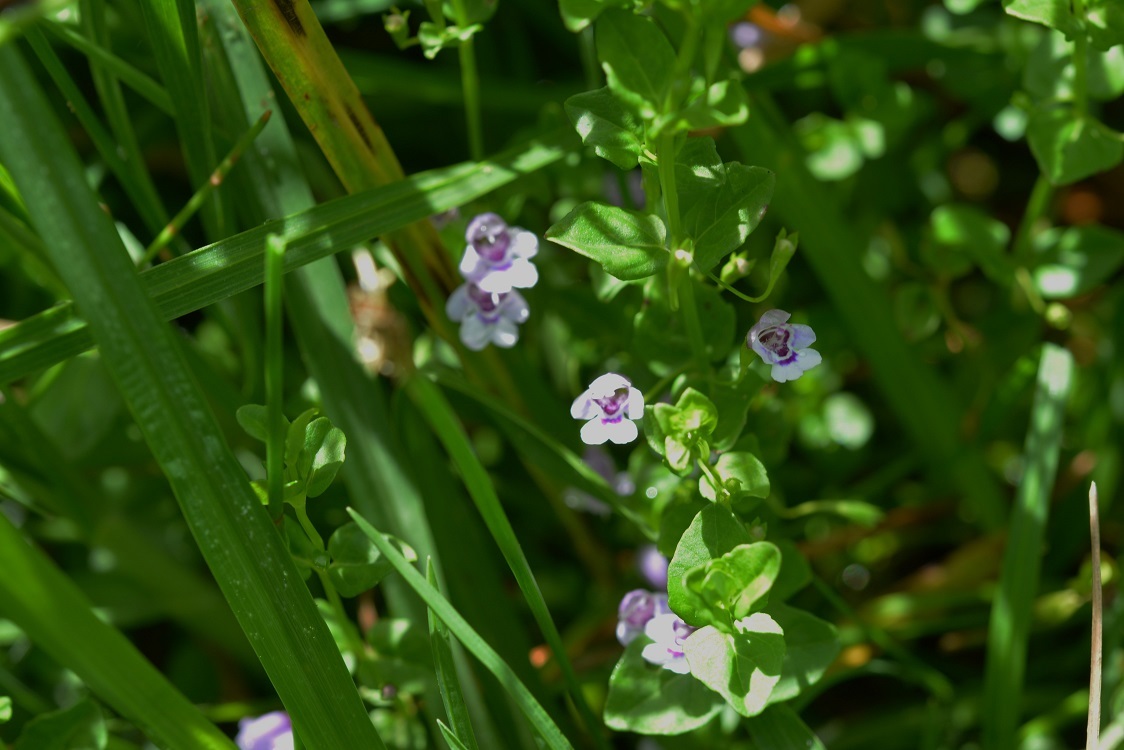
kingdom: Plantae
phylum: Tracheophyta
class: Magnoliopsida
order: Lamiales
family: Lamiaceae
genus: Clinopodium
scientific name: Clinopodium brownei
